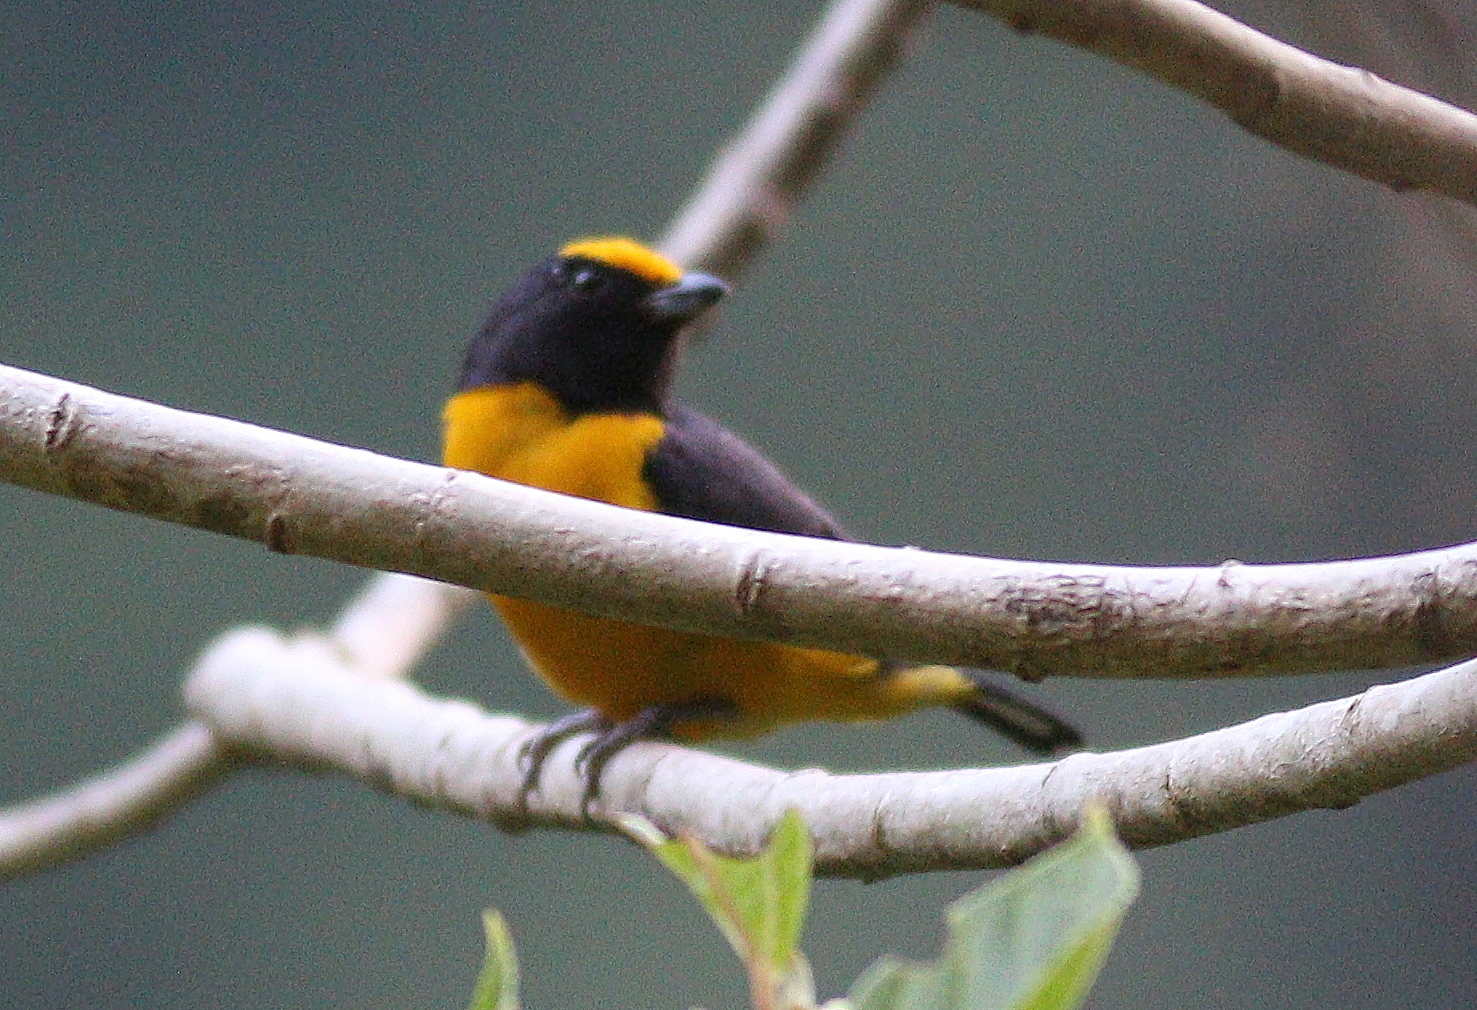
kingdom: Animalia
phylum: Chordata
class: Aves
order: Passeriformes
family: Fringillidae
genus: Euphonia
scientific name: Euphonia xanthogaster
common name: Orange-bellied euphonia
